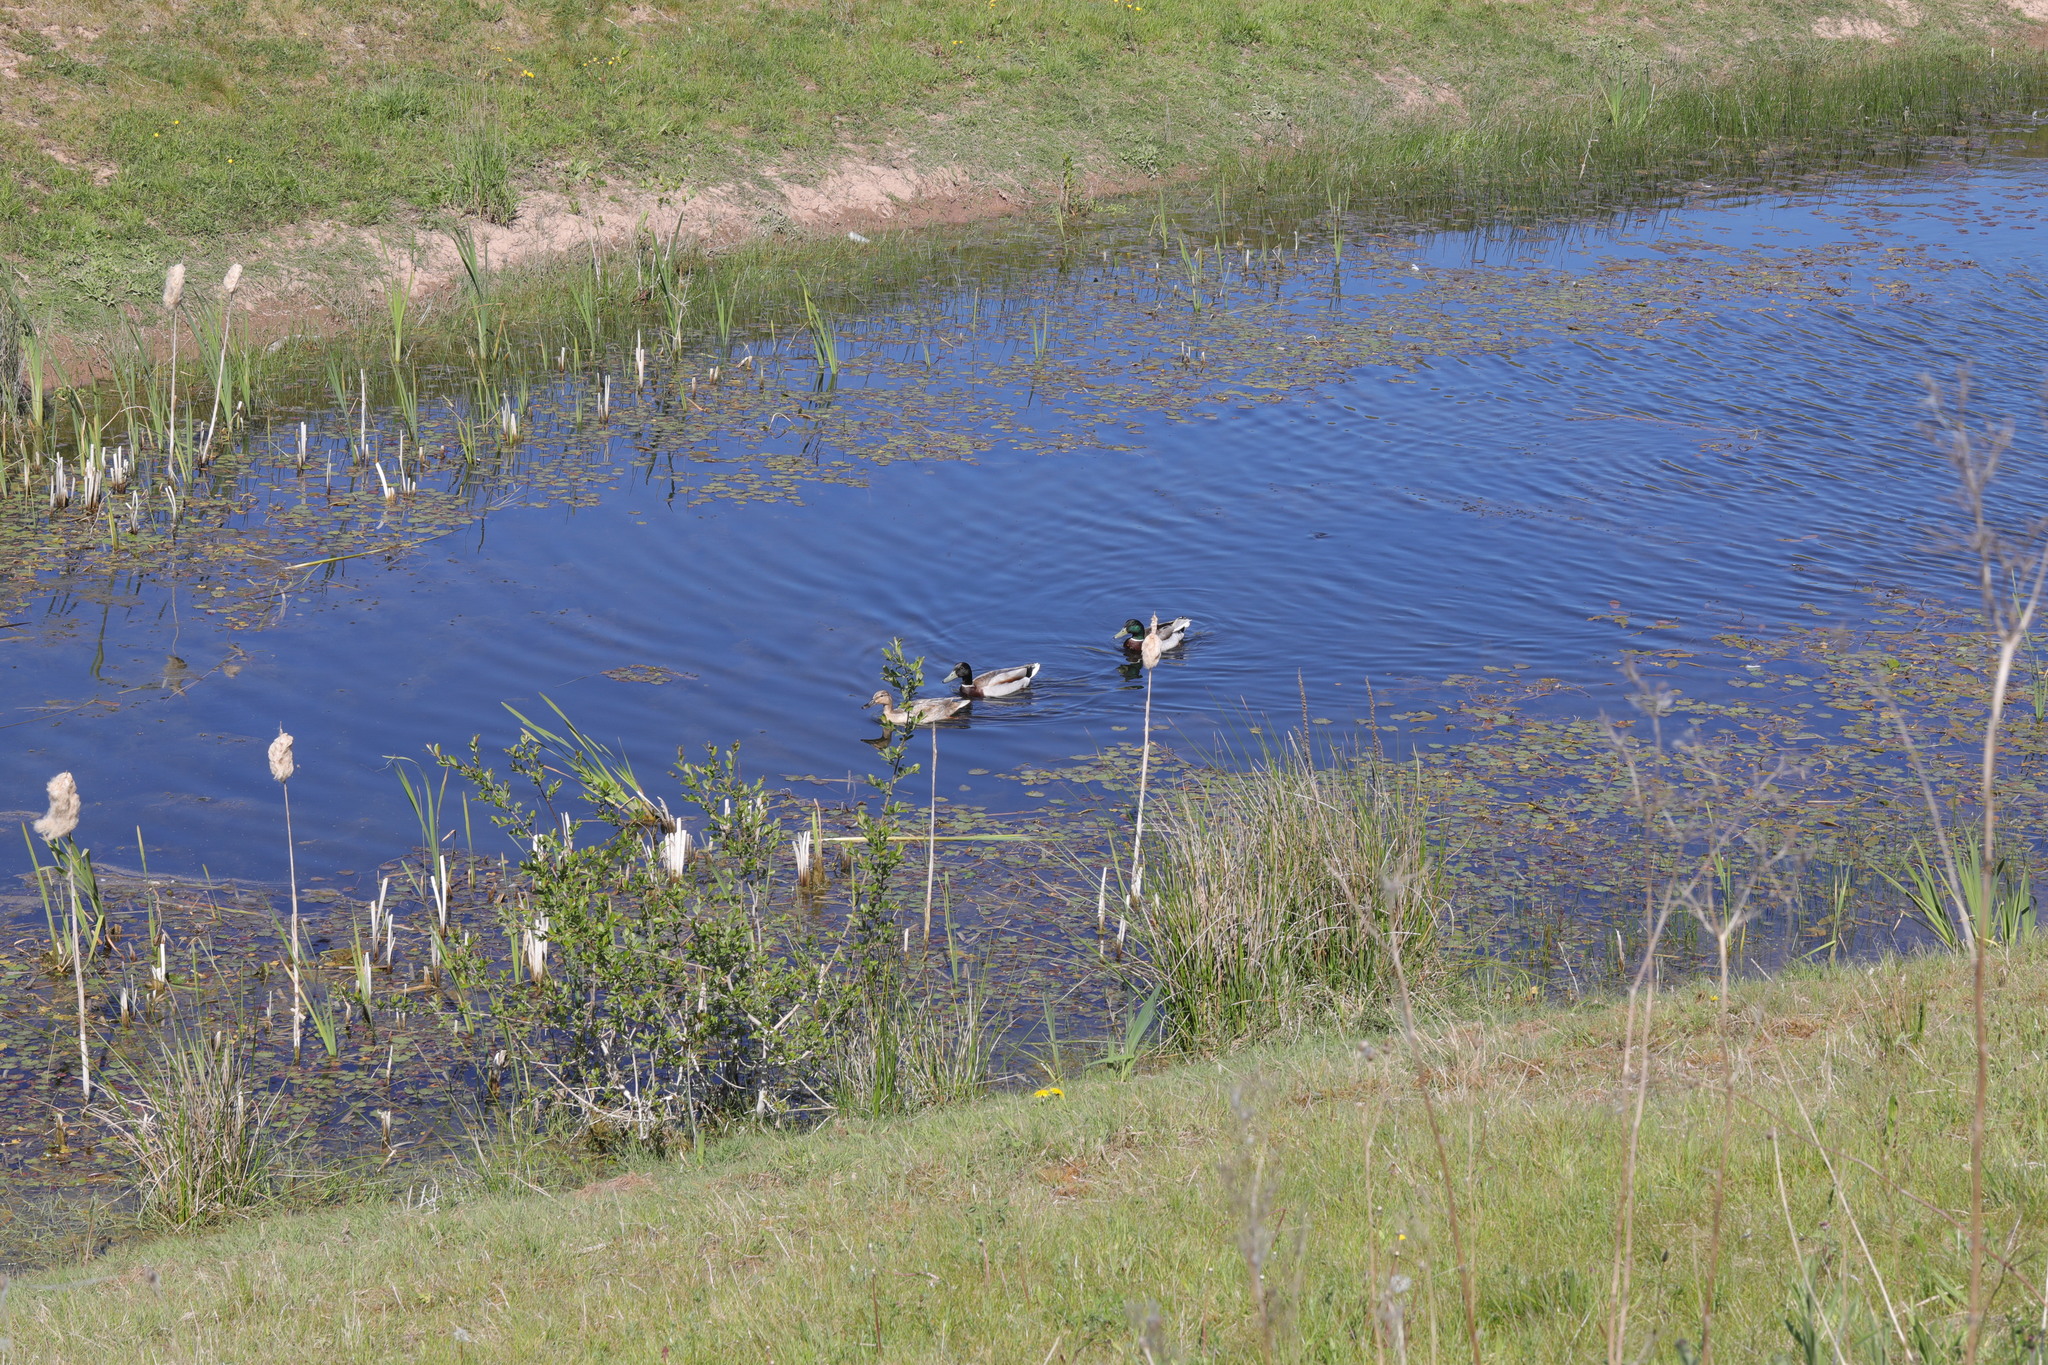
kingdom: Animalia
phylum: Chordata
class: Aves
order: Anseriformes
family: Anatidae
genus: Anas
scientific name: Anas platyrhynchos
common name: Mallard
